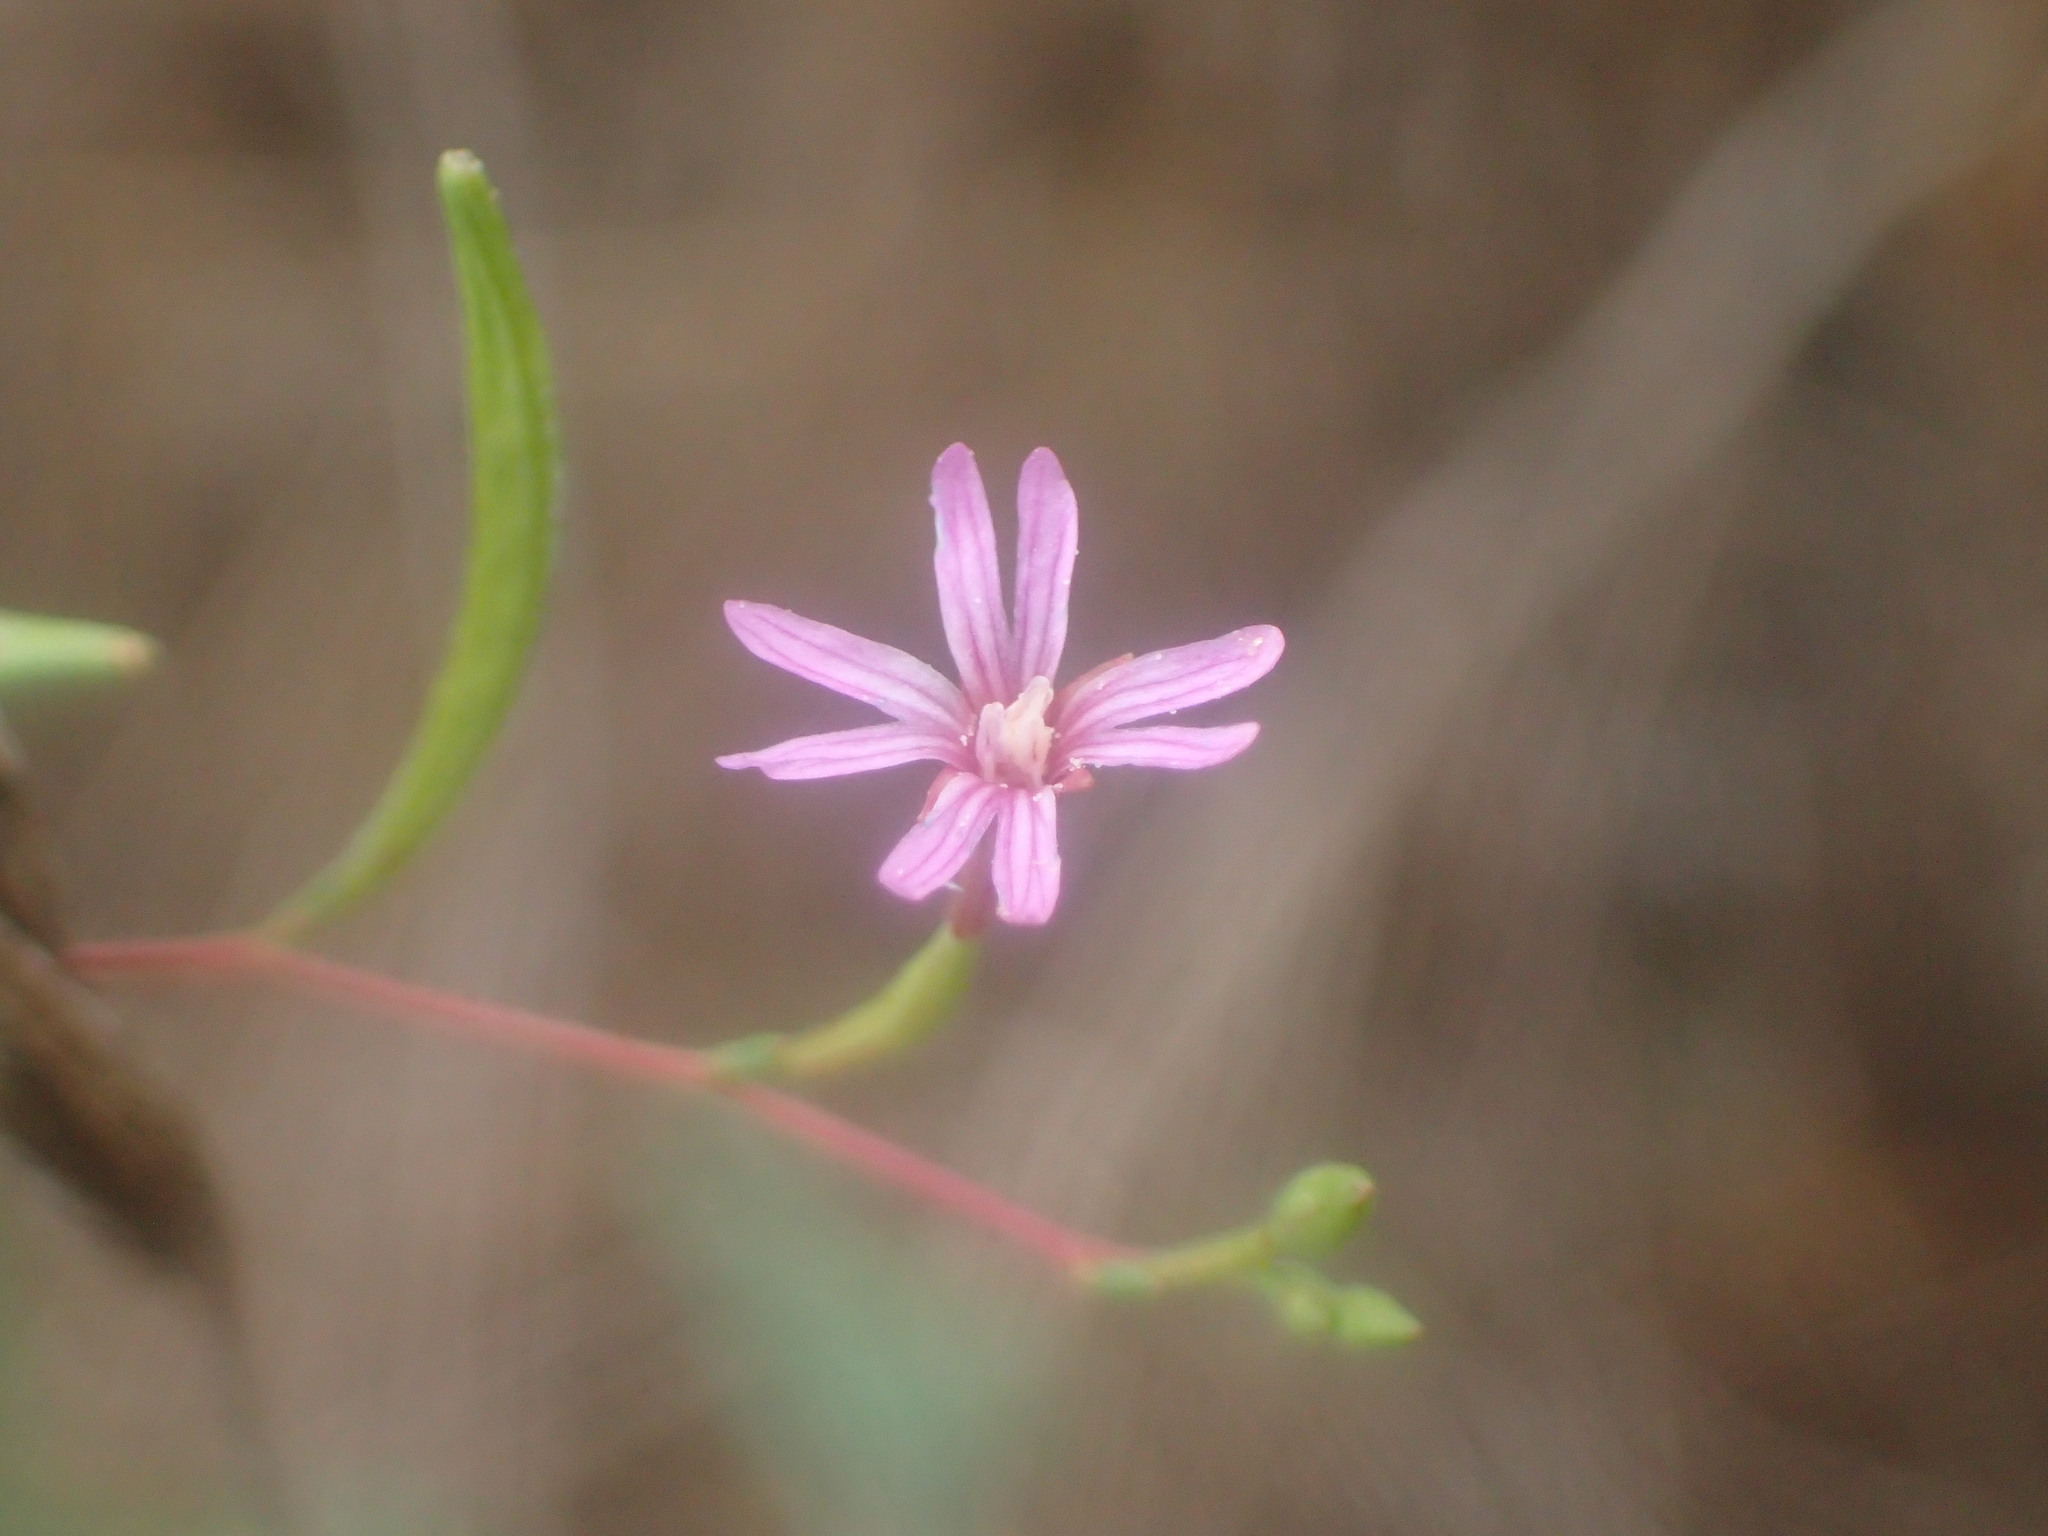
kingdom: Plantae
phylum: Tracheophyta
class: Magnoliopsida
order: Myrtales
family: Onagraceae
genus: Epilobium
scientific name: Epilobium brachycarpum
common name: Annual willowherb
